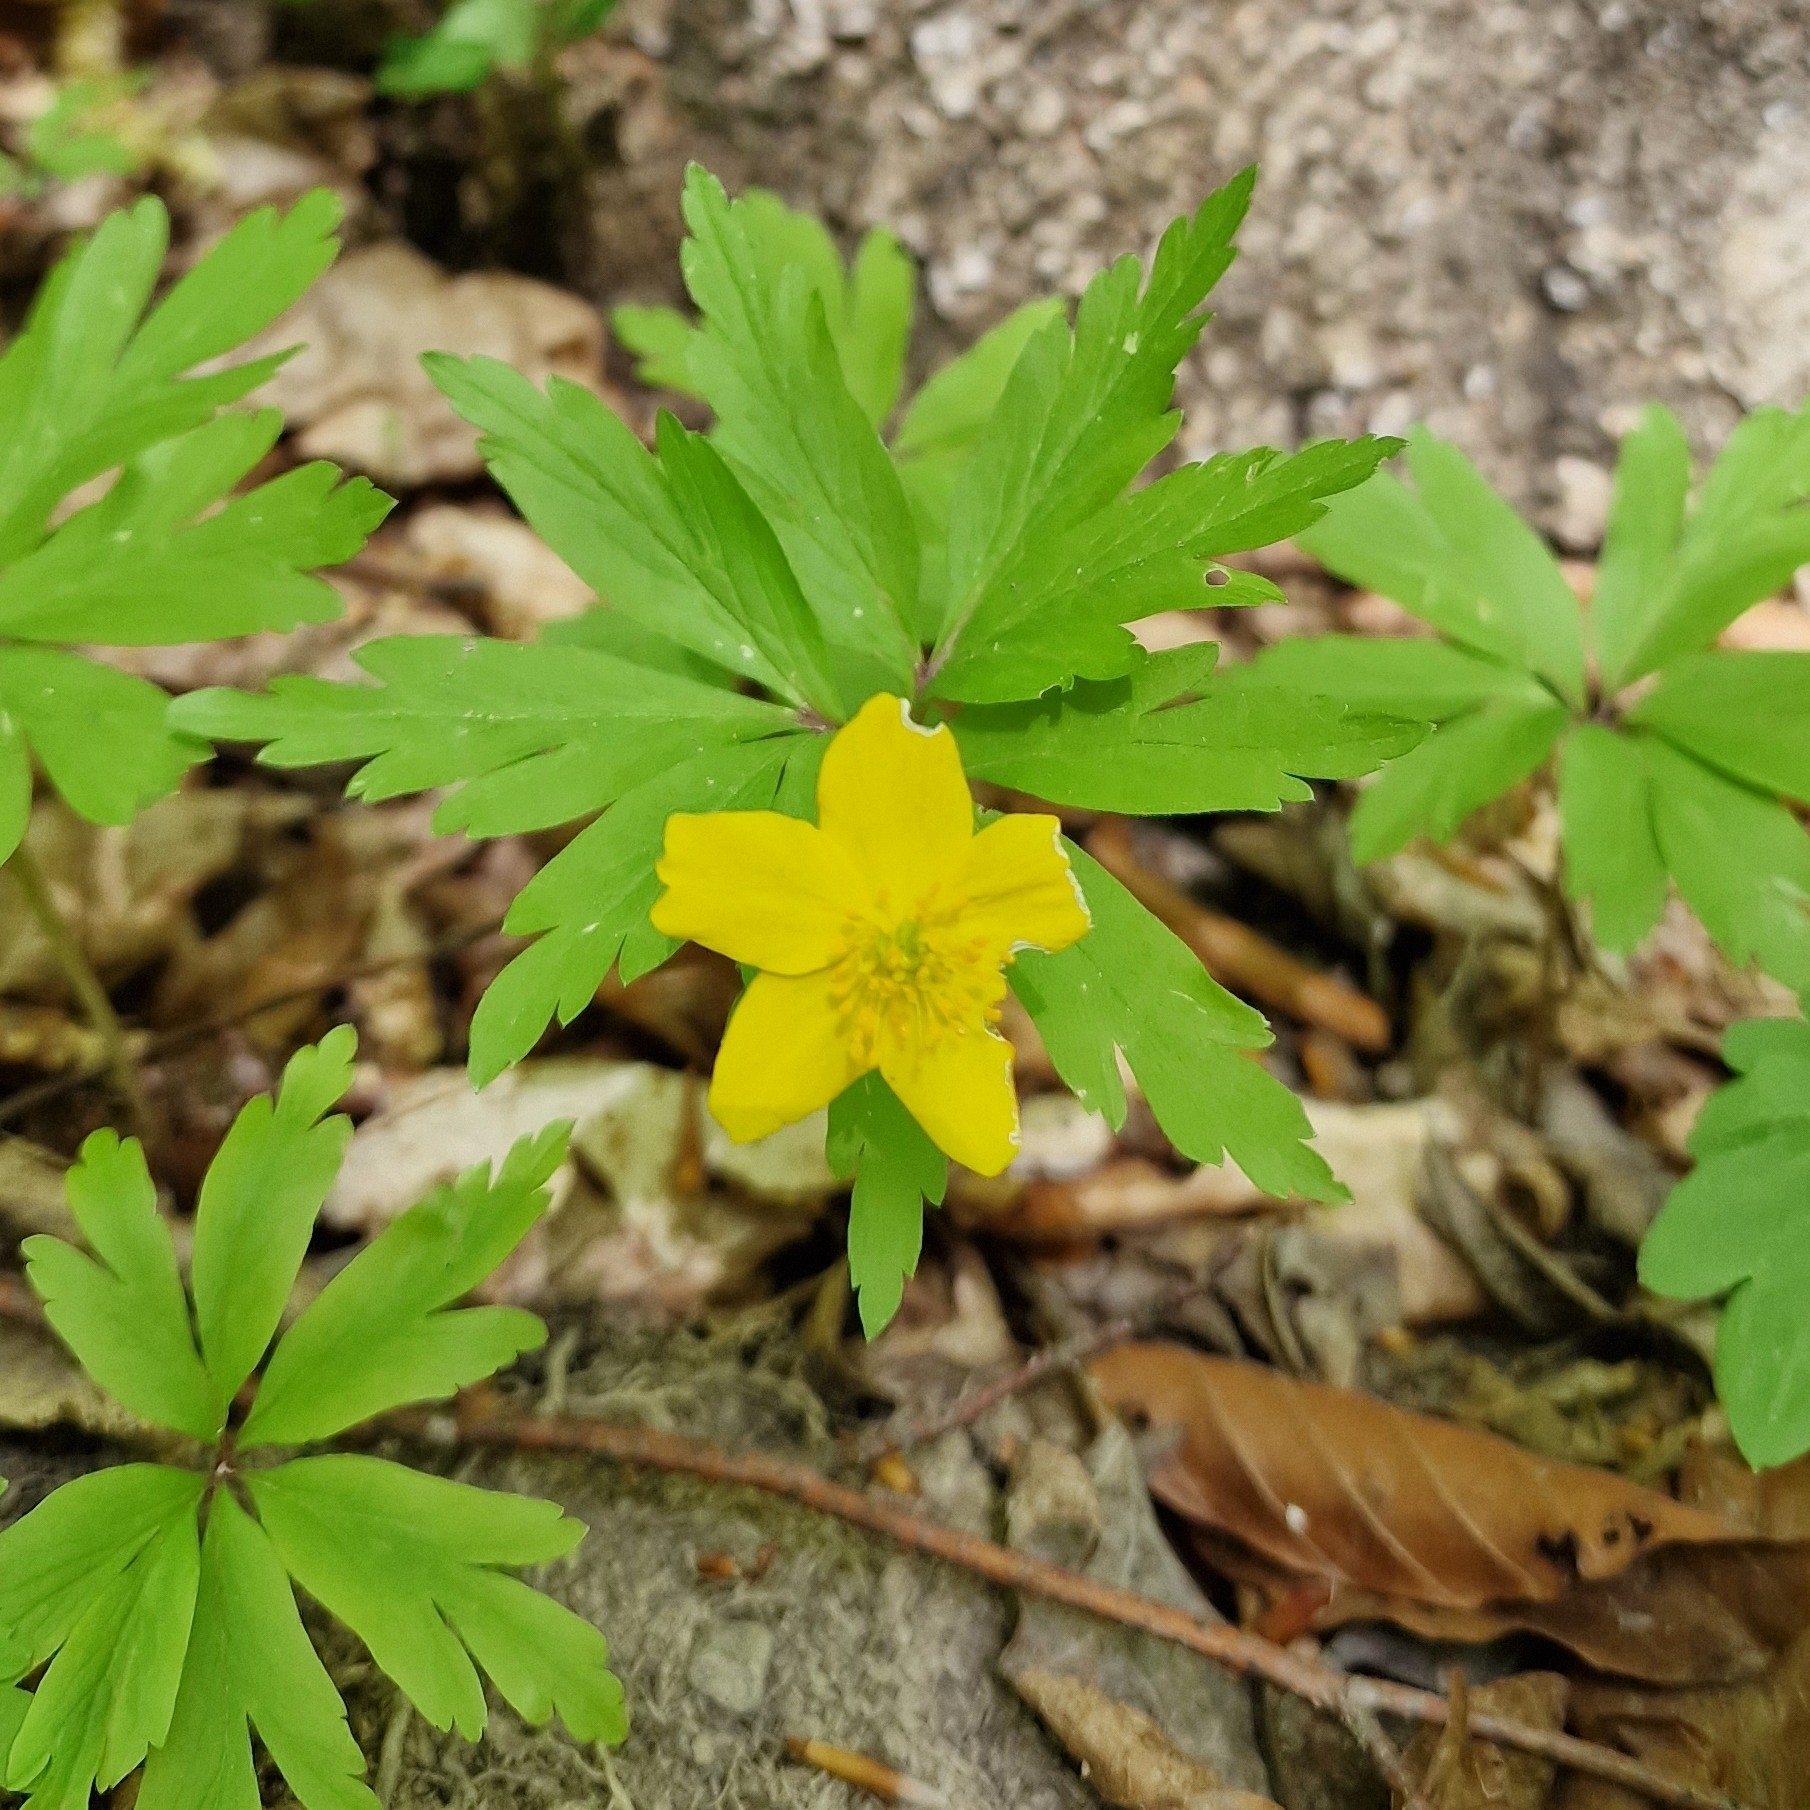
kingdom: Plantae
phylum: Tracheophyta
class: Magnoliopsida
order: Ranunculales
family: Ranunculaceae
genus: Anemone
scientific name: Anemone ranunculoides
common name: Yellow anemone
